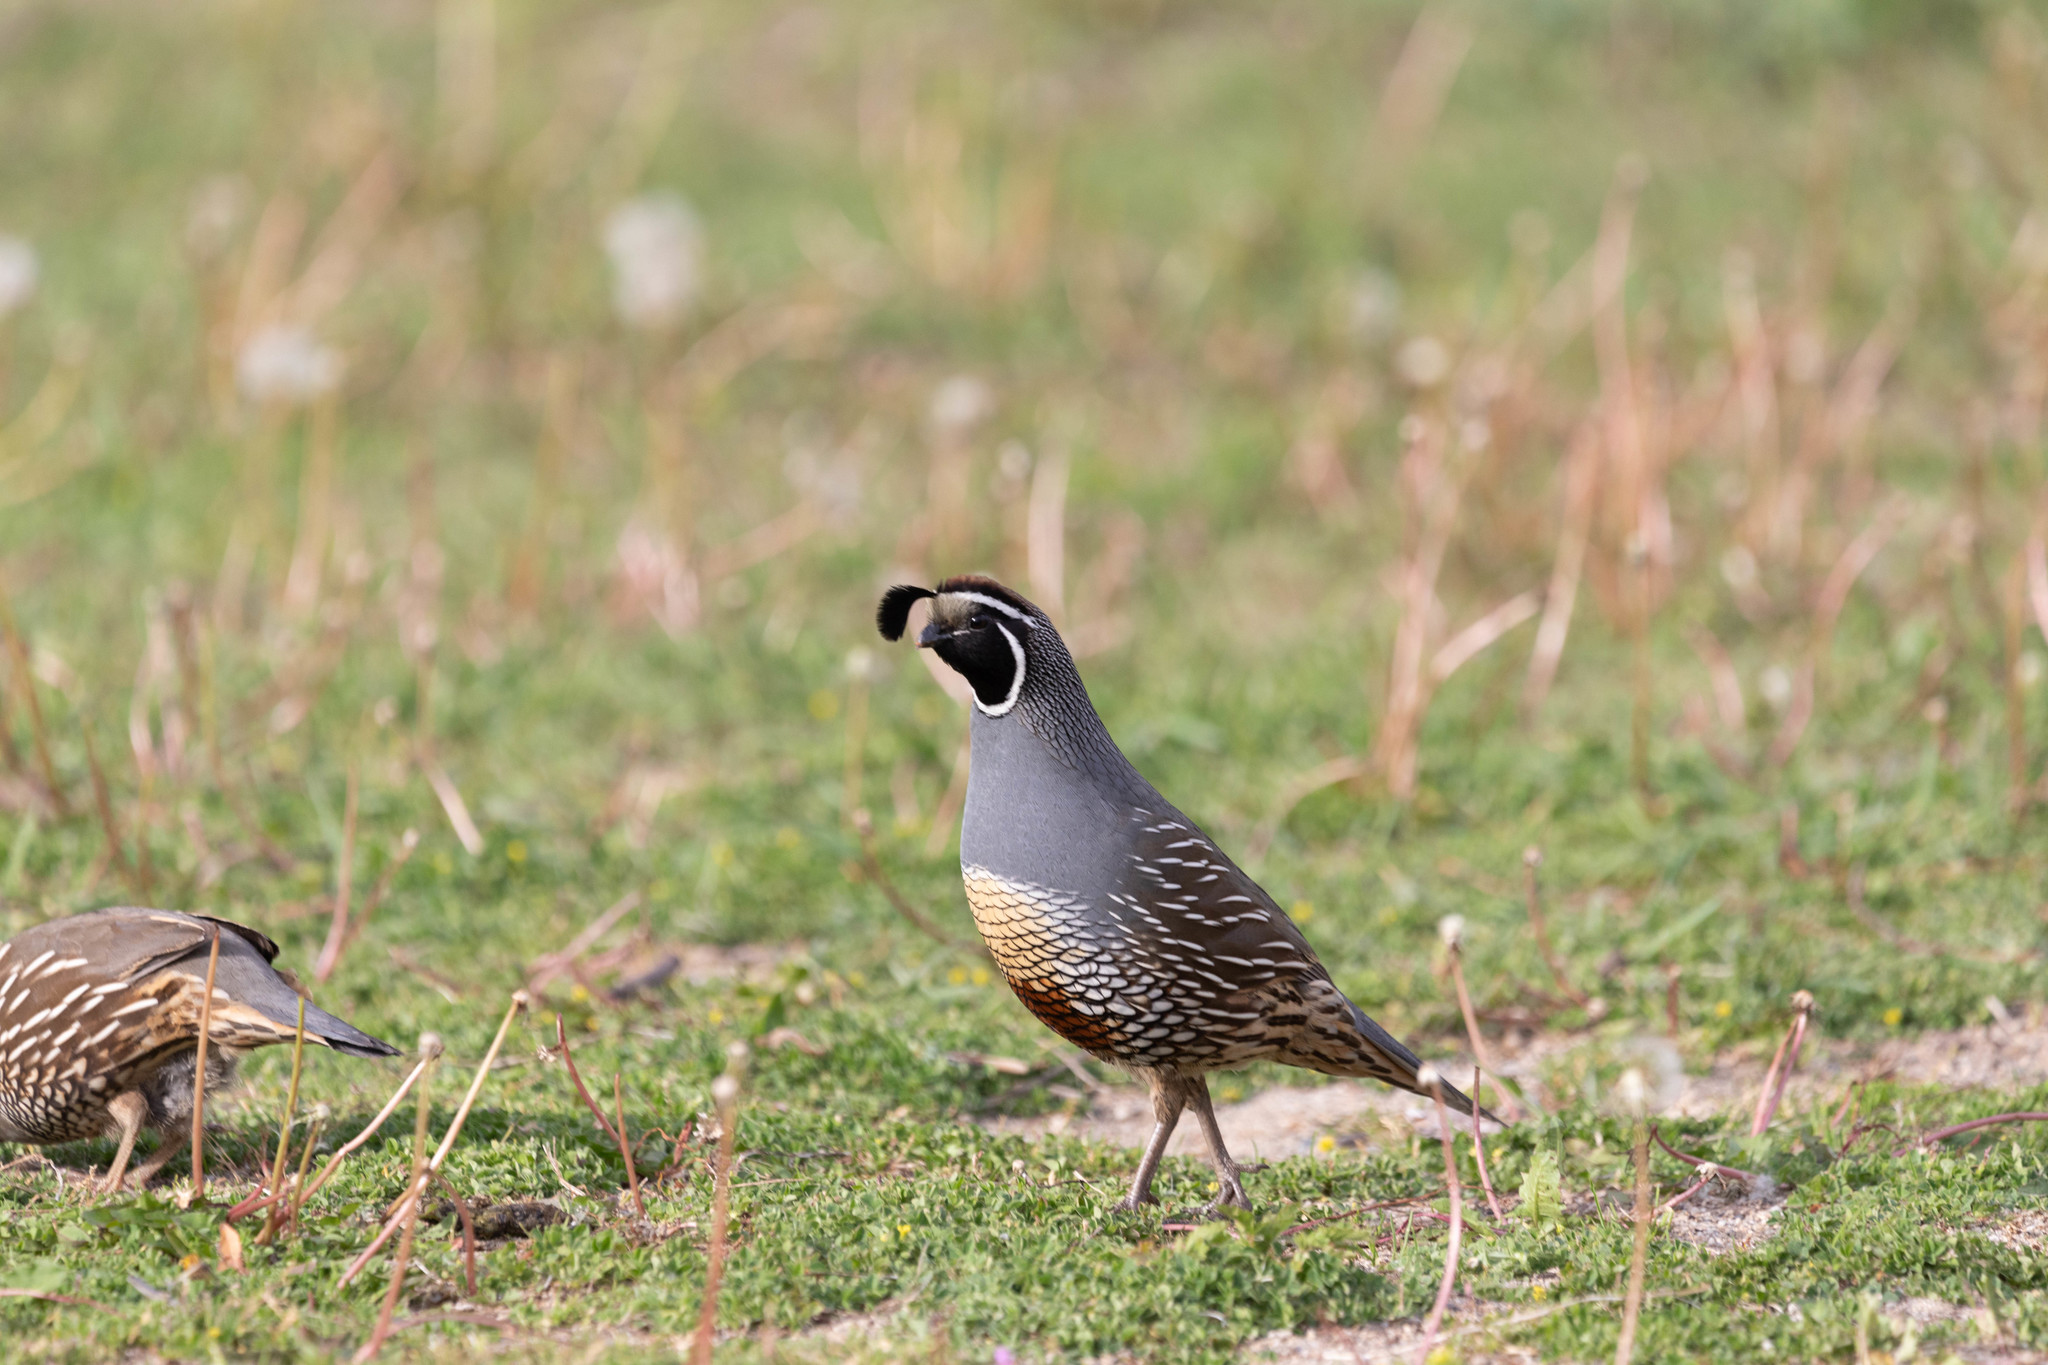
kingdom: Animalia
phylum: Chordata
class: Aves
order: Galliformes
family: Odontophoridae
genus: Callipepla
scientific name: Callipepla californica
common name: California quail
